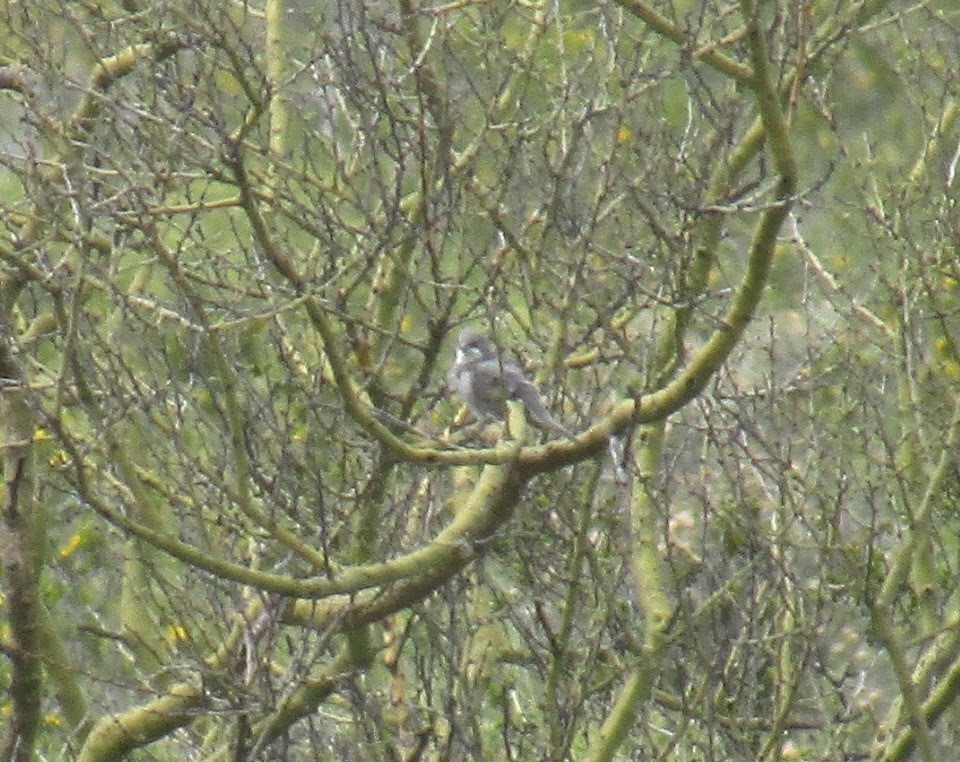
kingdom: Animalia
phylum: Chordata
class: Aves
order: Passeriformes
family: Thraupidae
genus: Diuca
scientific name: Diuca diuca
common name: Common diuca finch
